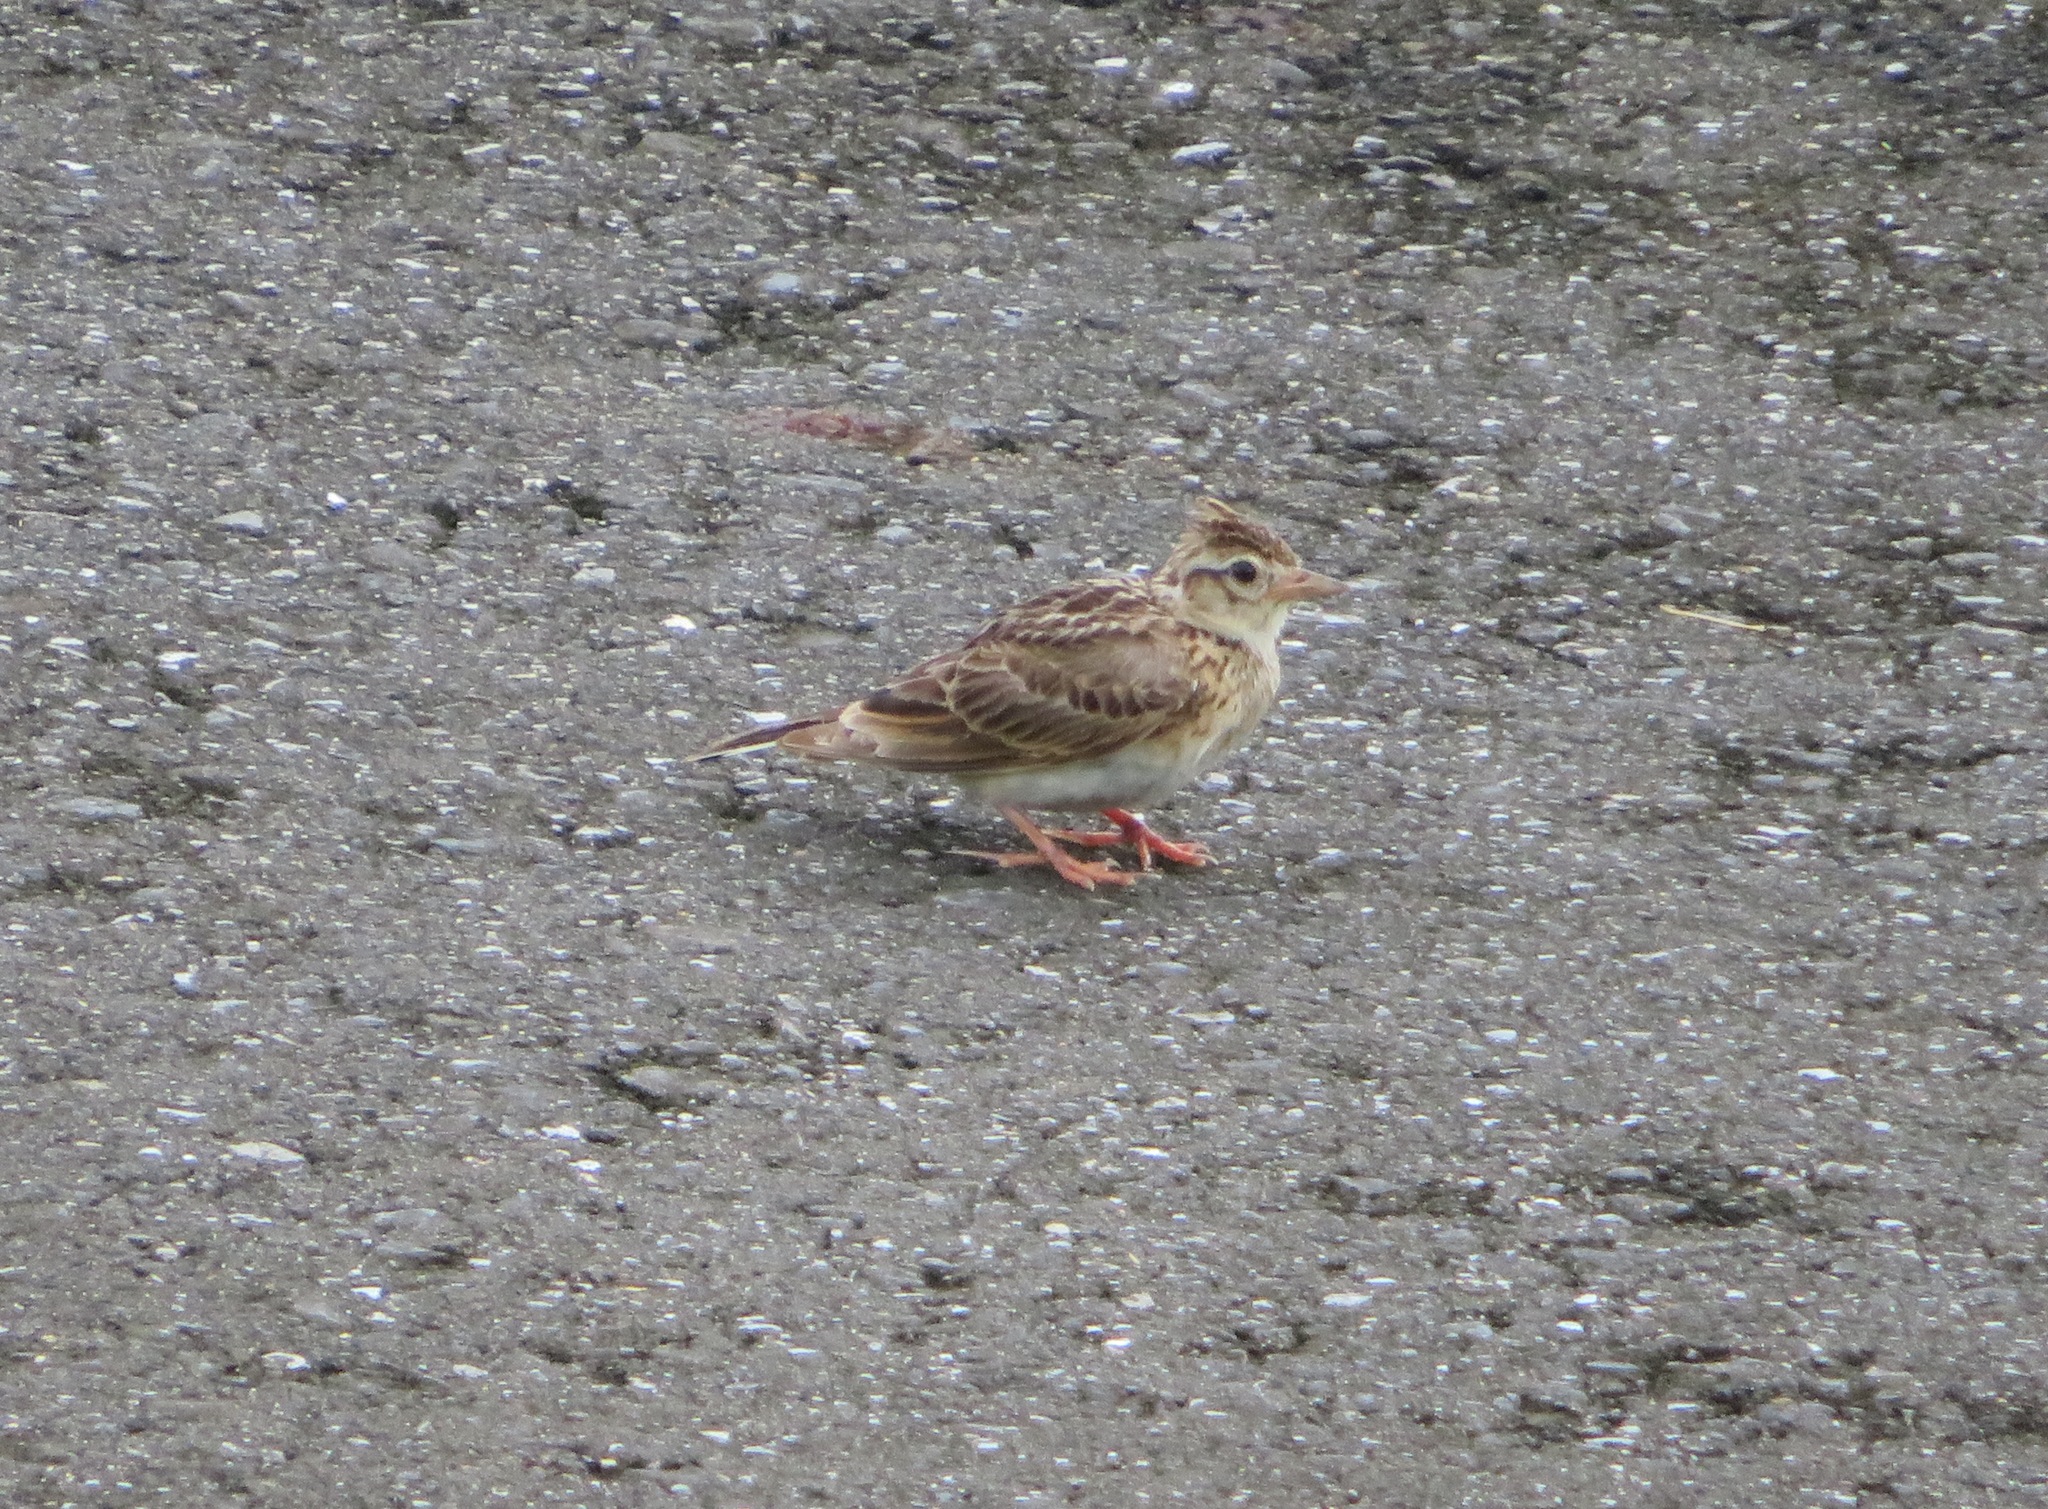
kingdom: Animalia
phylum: Chordata
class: Aves
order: Passeriformes
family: Alaudidae
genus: Alauda
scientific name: Alauda arvensis
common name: Eurasian skylark
